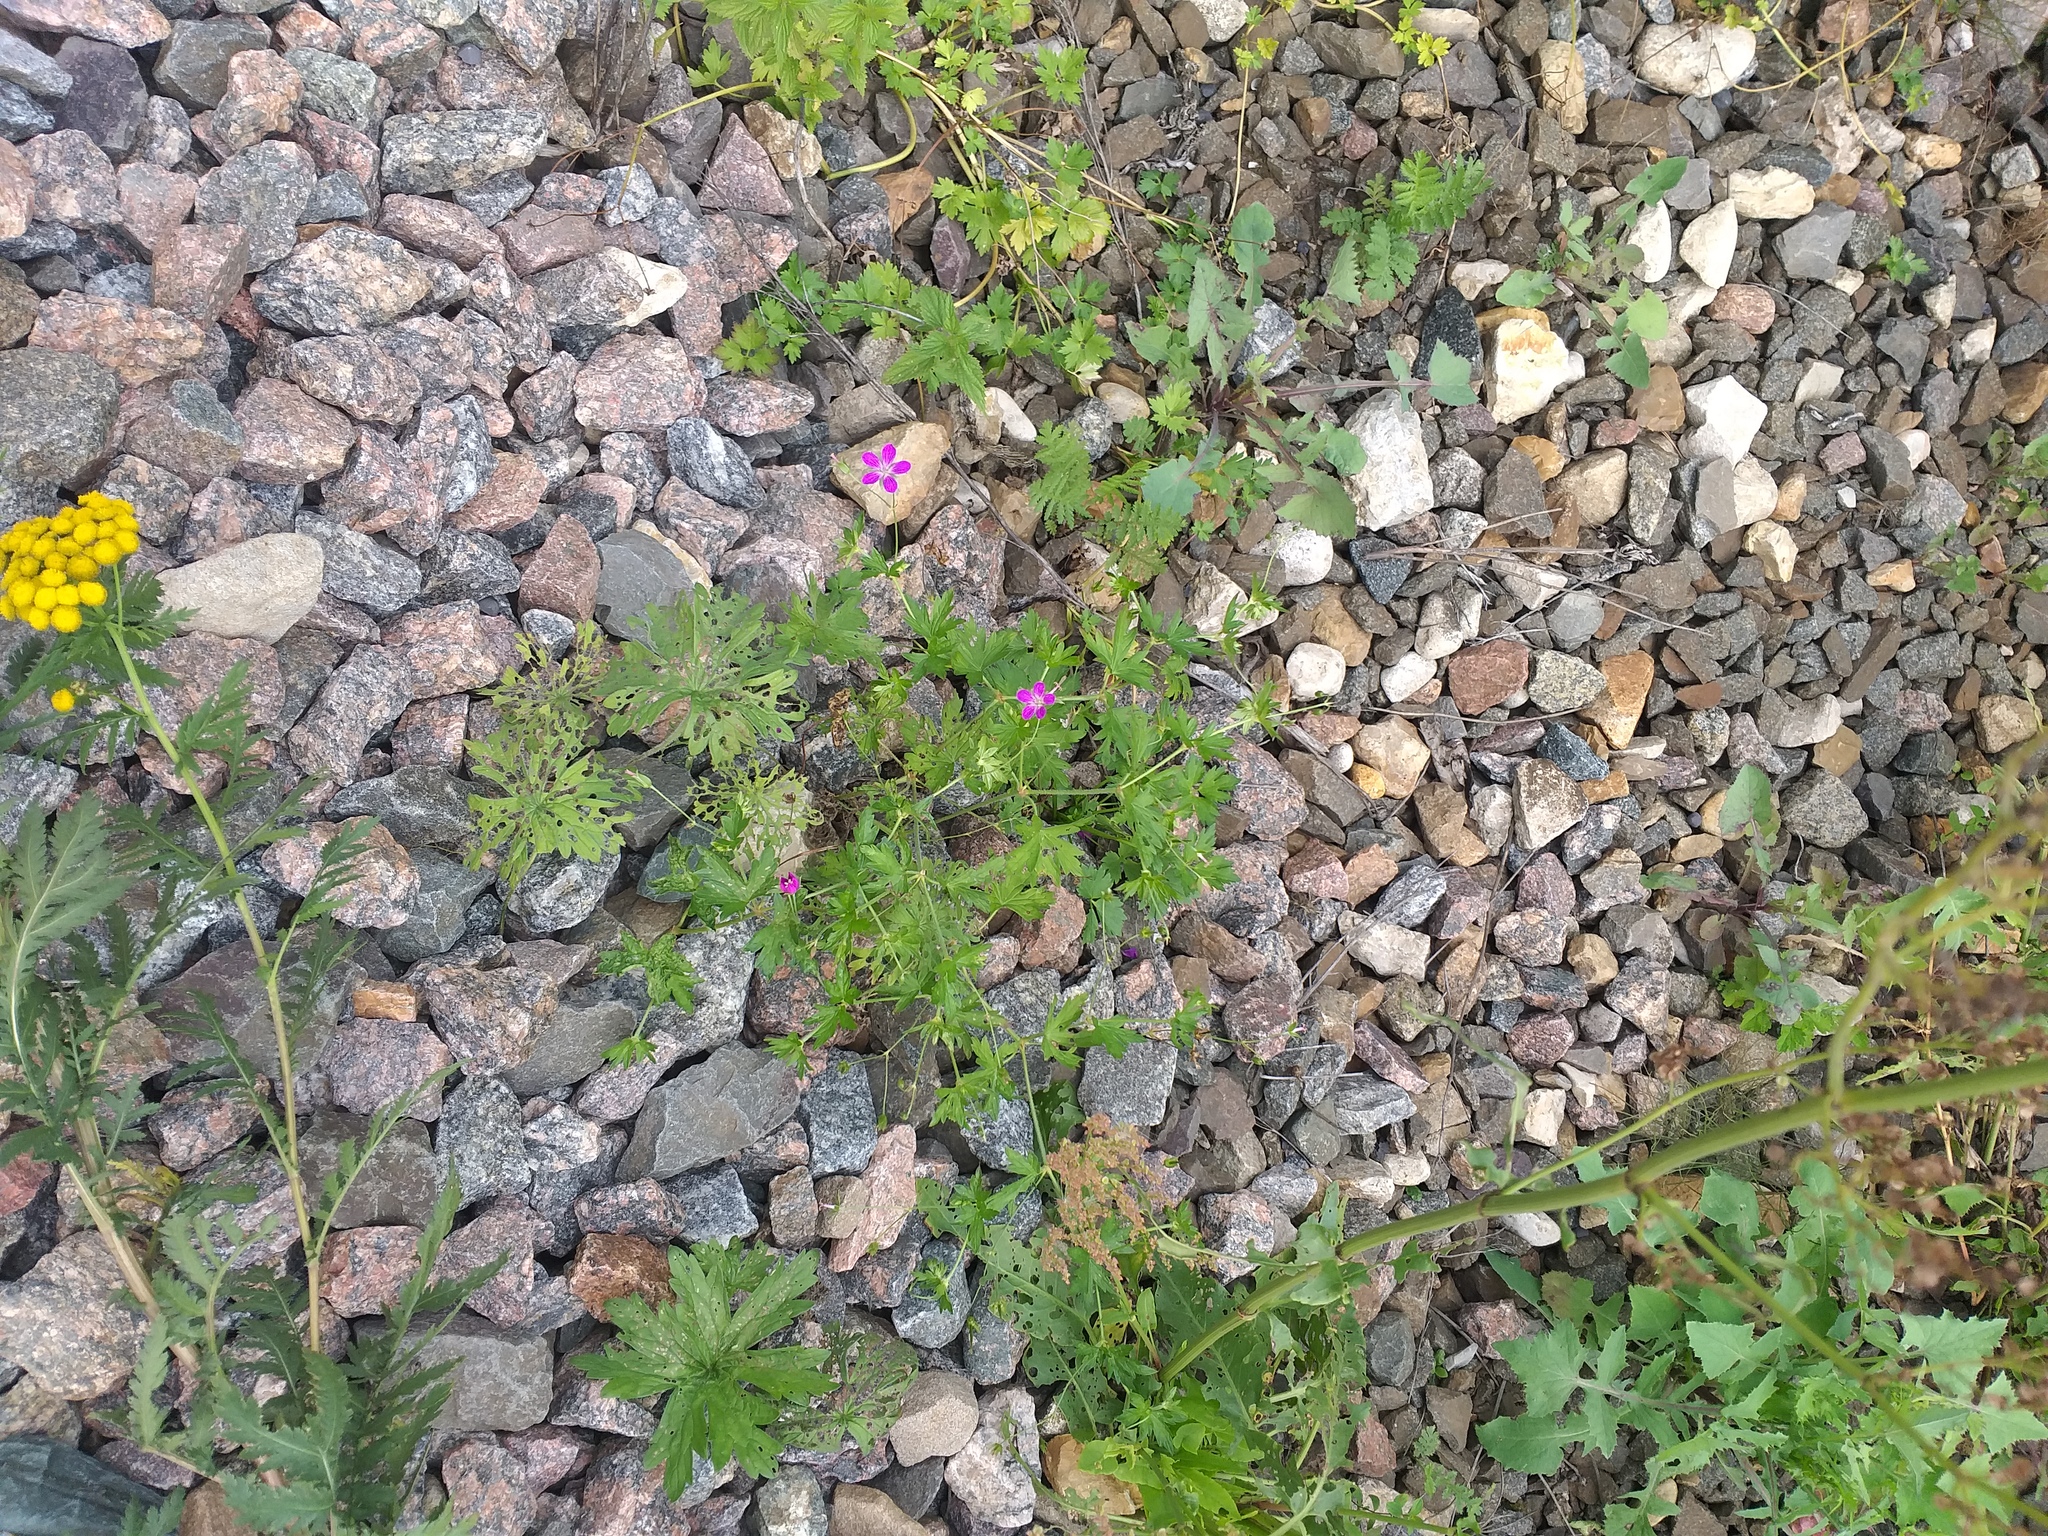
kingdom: Plantae
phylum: Tracheophyta
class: Magnoliopsida
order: Geraniales
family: Geraniaceae
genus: Geranium
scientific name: Geranium palustre
